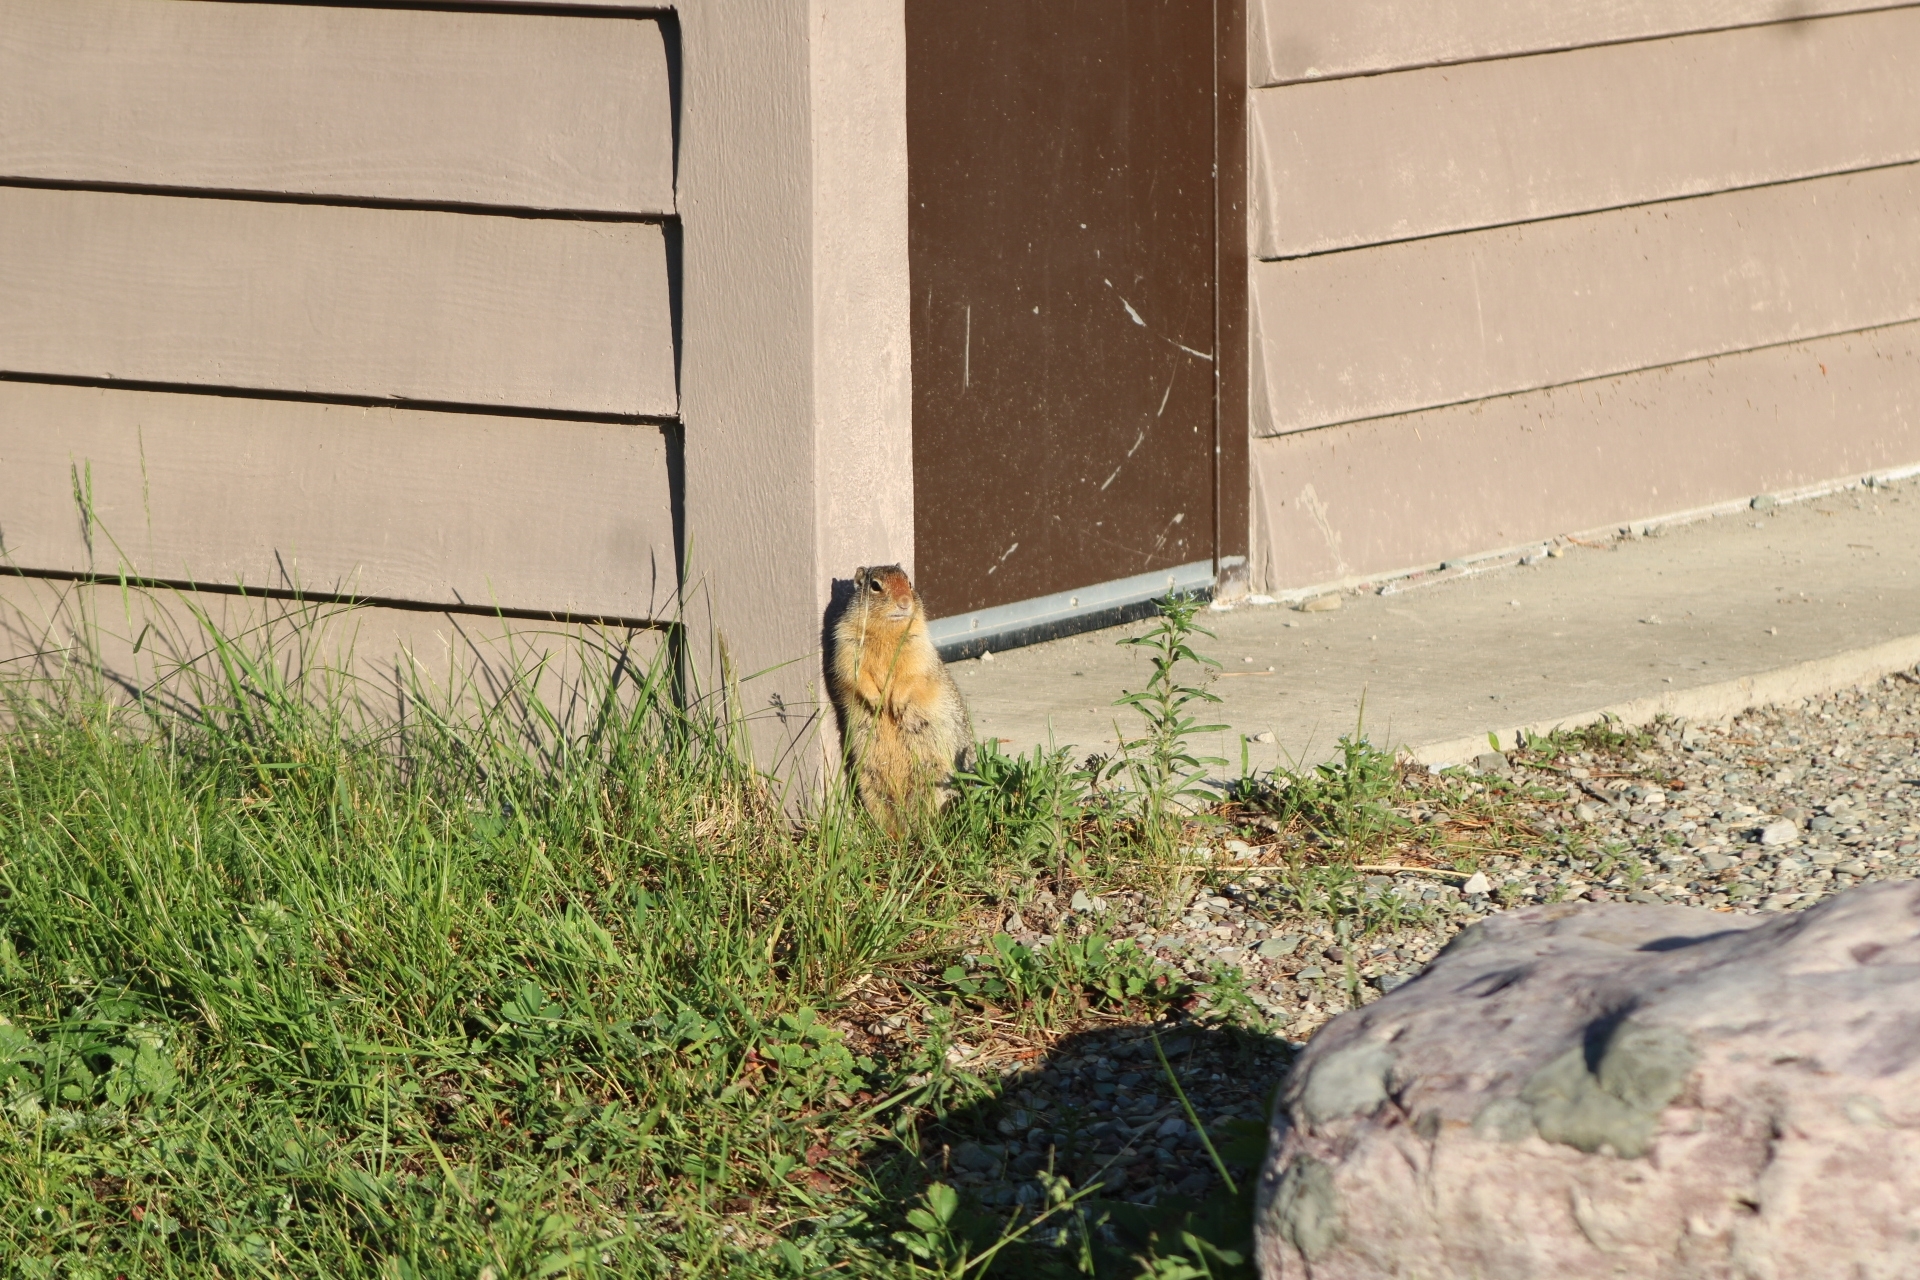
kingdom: Animalia
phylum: Chordata
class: Mammalia
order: Rodentia
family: Sciuridae
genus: Urocitellus
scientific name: Urocitellus columbianus
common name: Columbian ground squirrel
